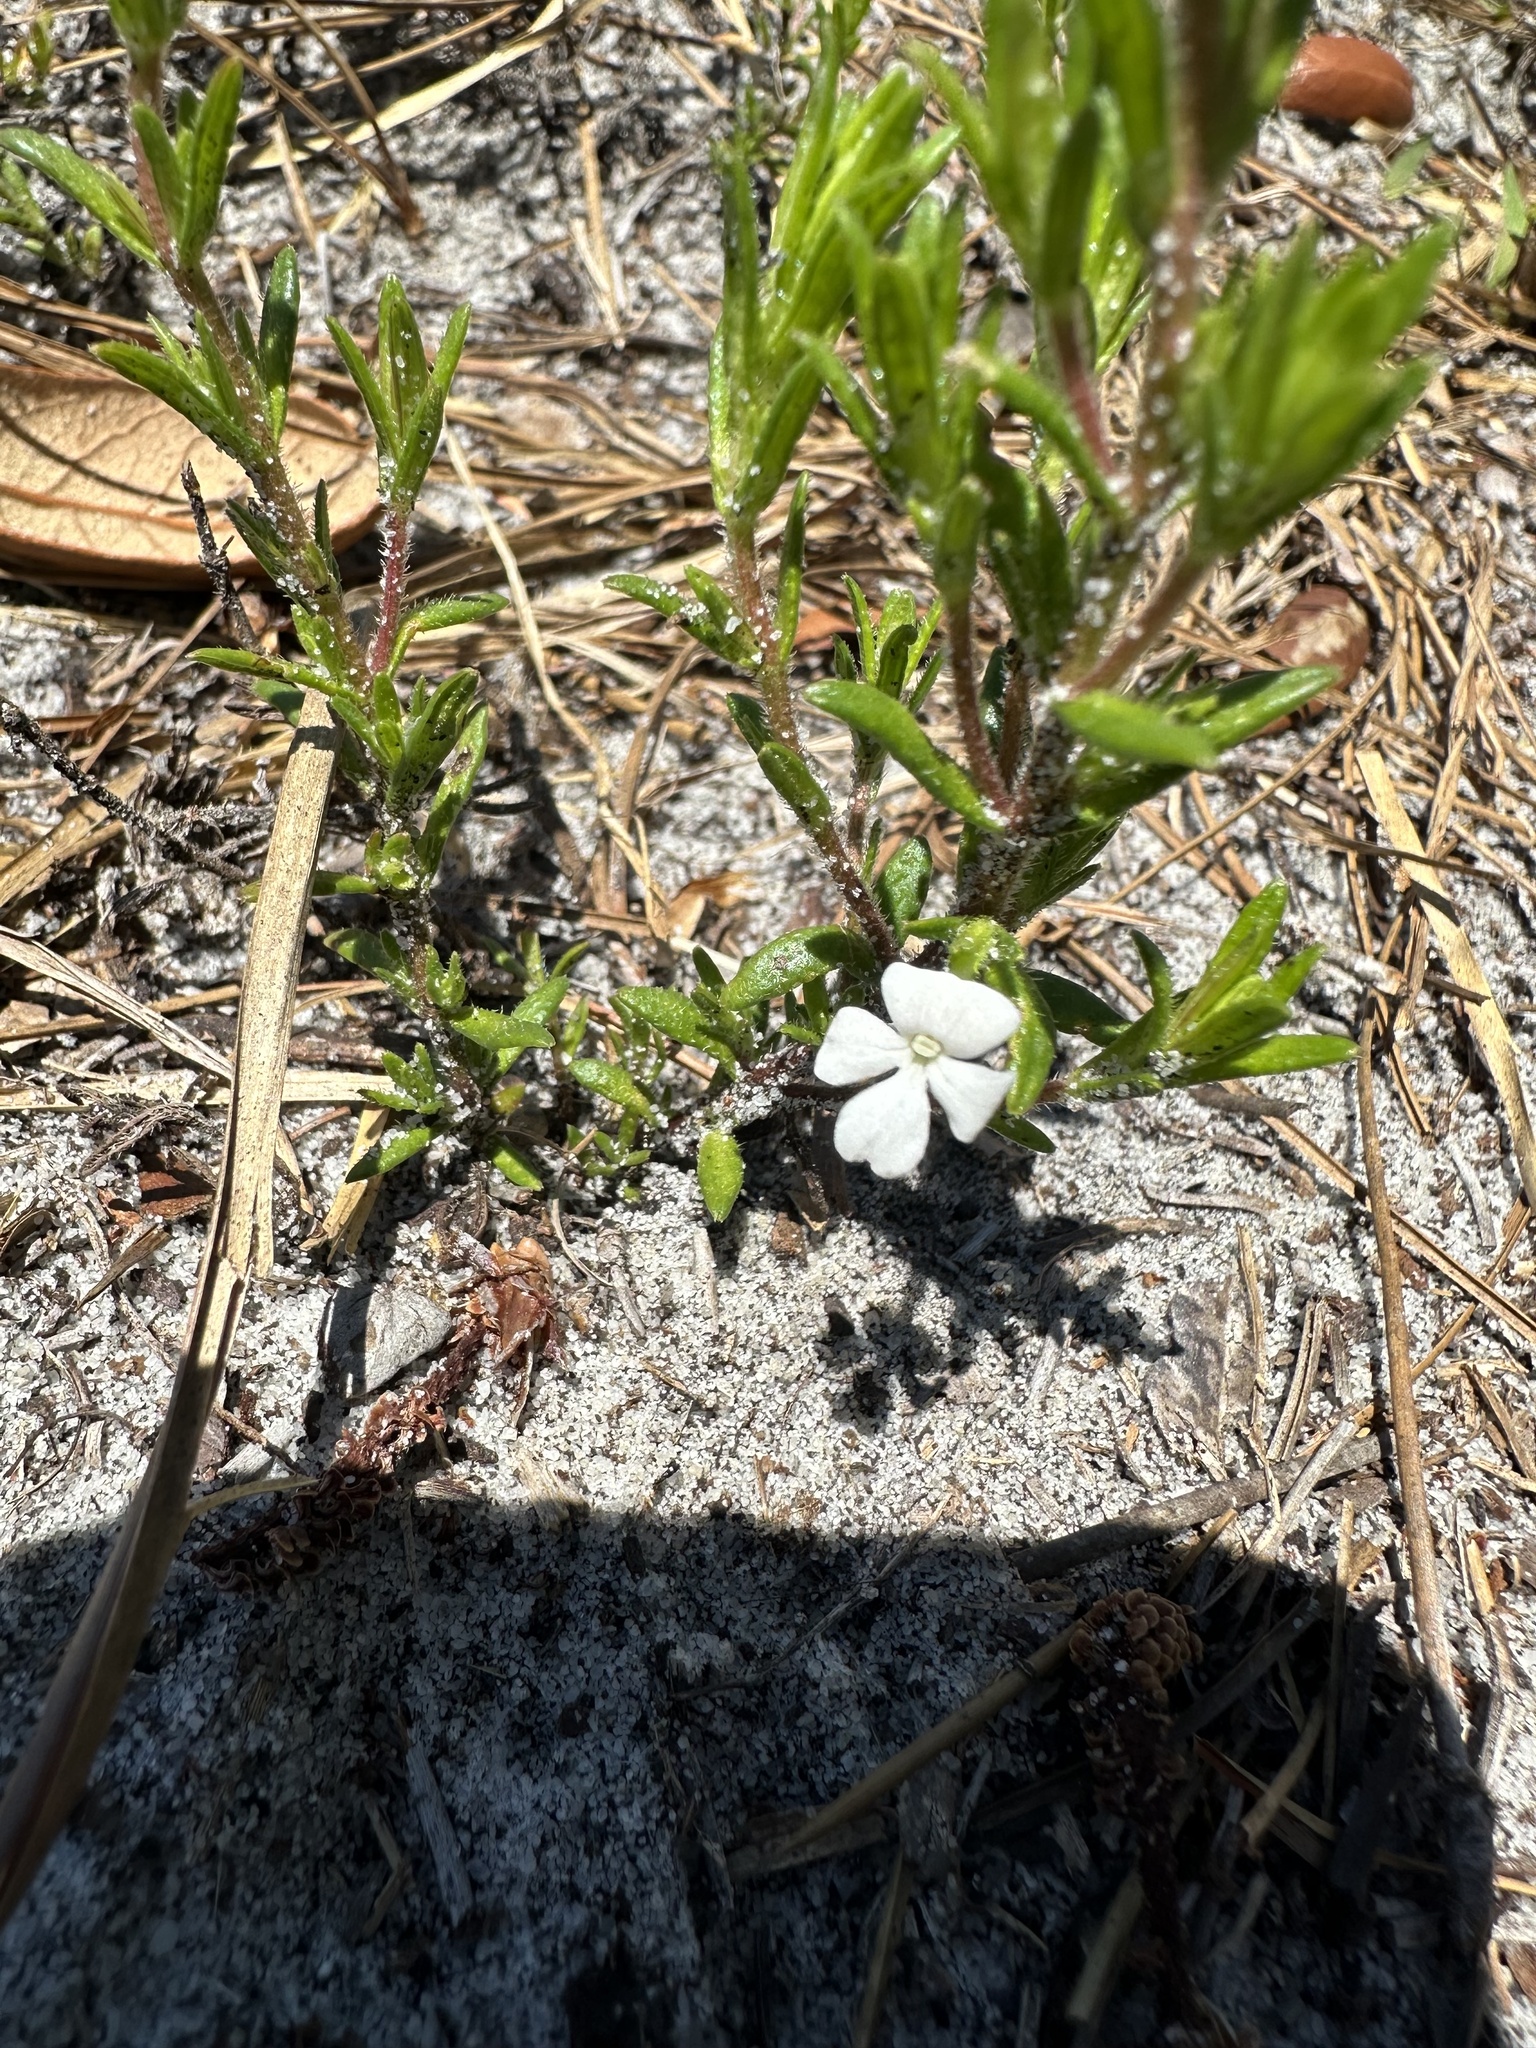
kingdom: Plantae
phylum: Tracheophyta
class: Magnoliopsida
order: Lamiales
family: Plantaginaceae
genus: Gratiola
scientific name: Gratiola hispida
